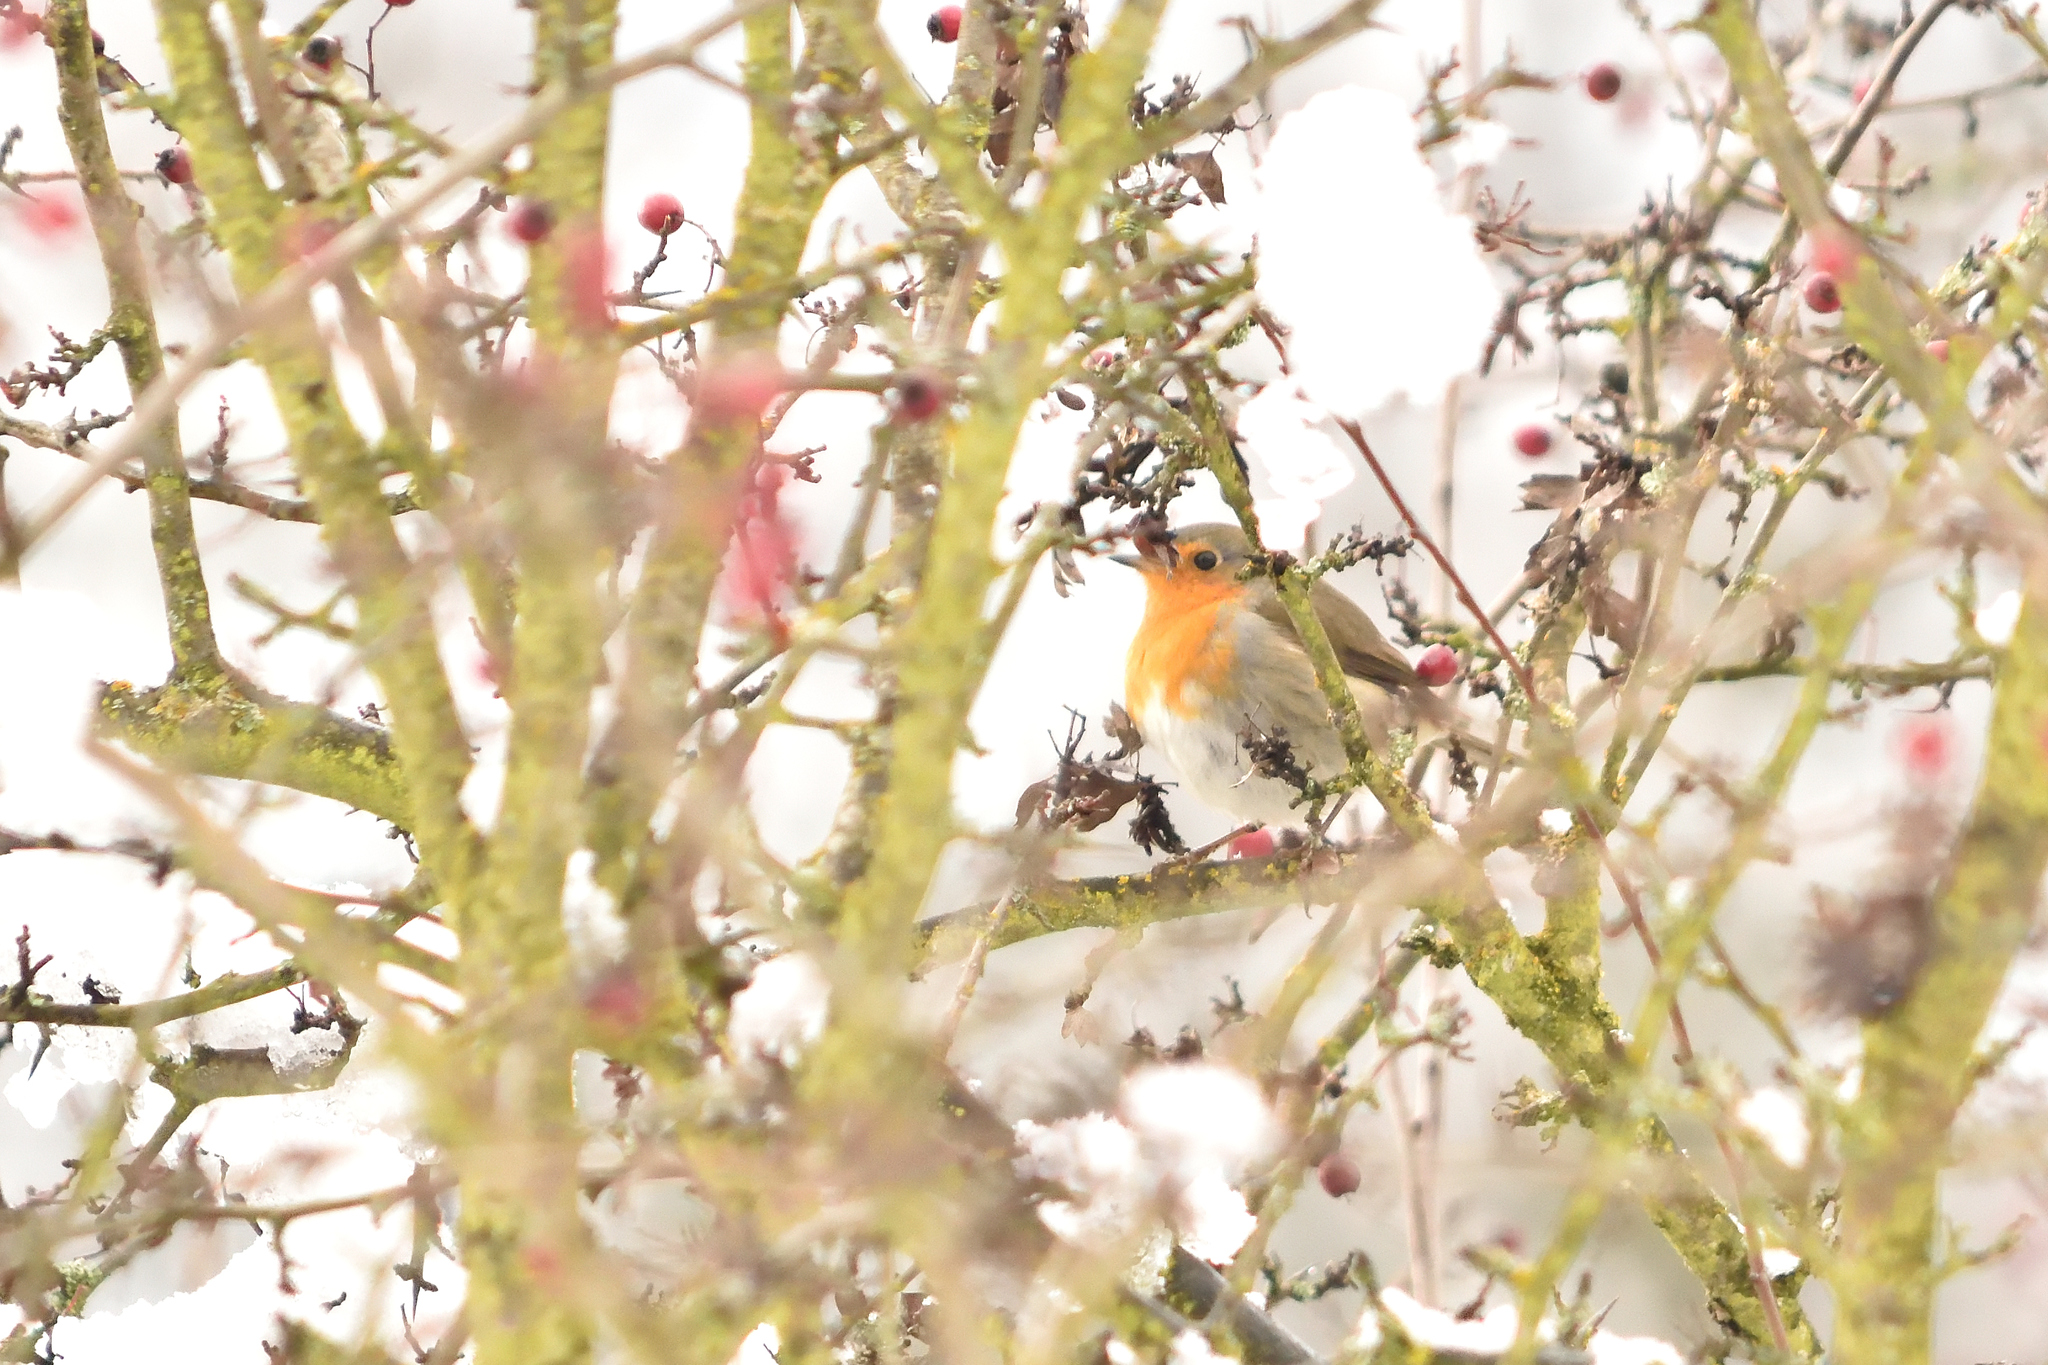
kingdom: Animalia
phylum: Chordata
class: Aves
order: Passeriformes
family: Muscicapidae
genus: Erithacus
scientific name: Erithacus rubecula
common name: European robin
